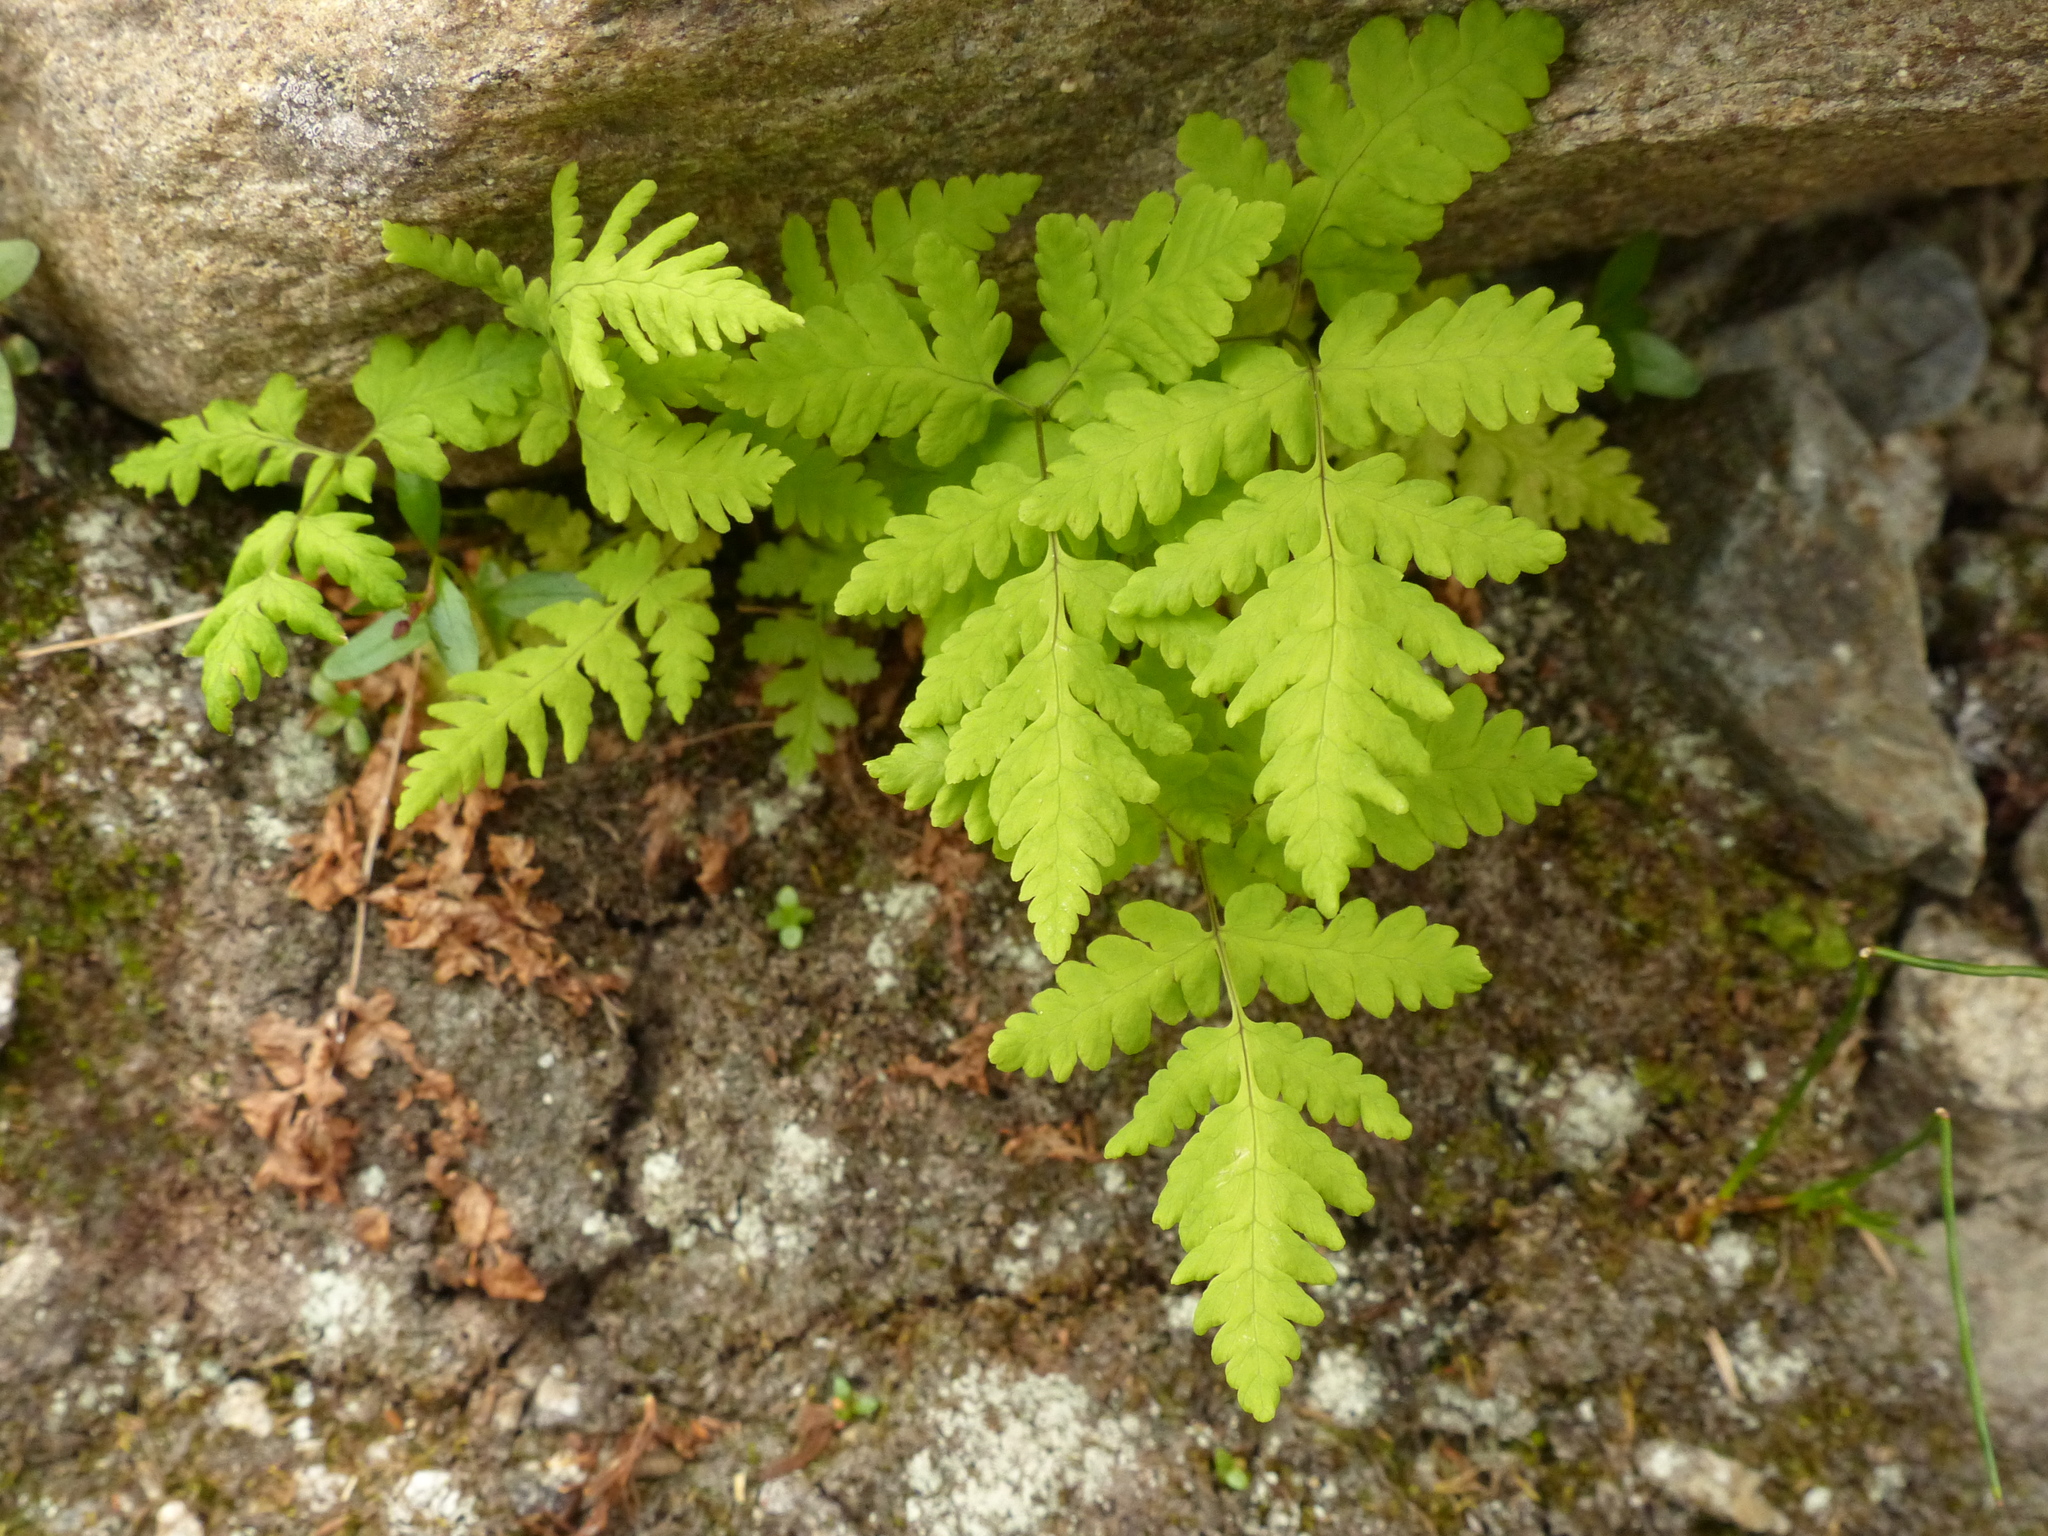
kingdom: Plantae
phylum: Tracheophyta
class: Polypodiopsida
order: Polypodiales
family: Cystopteridaceae
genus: Gymnocarpium
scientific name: Gymnocarpium dryopteris
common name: Oak fern
